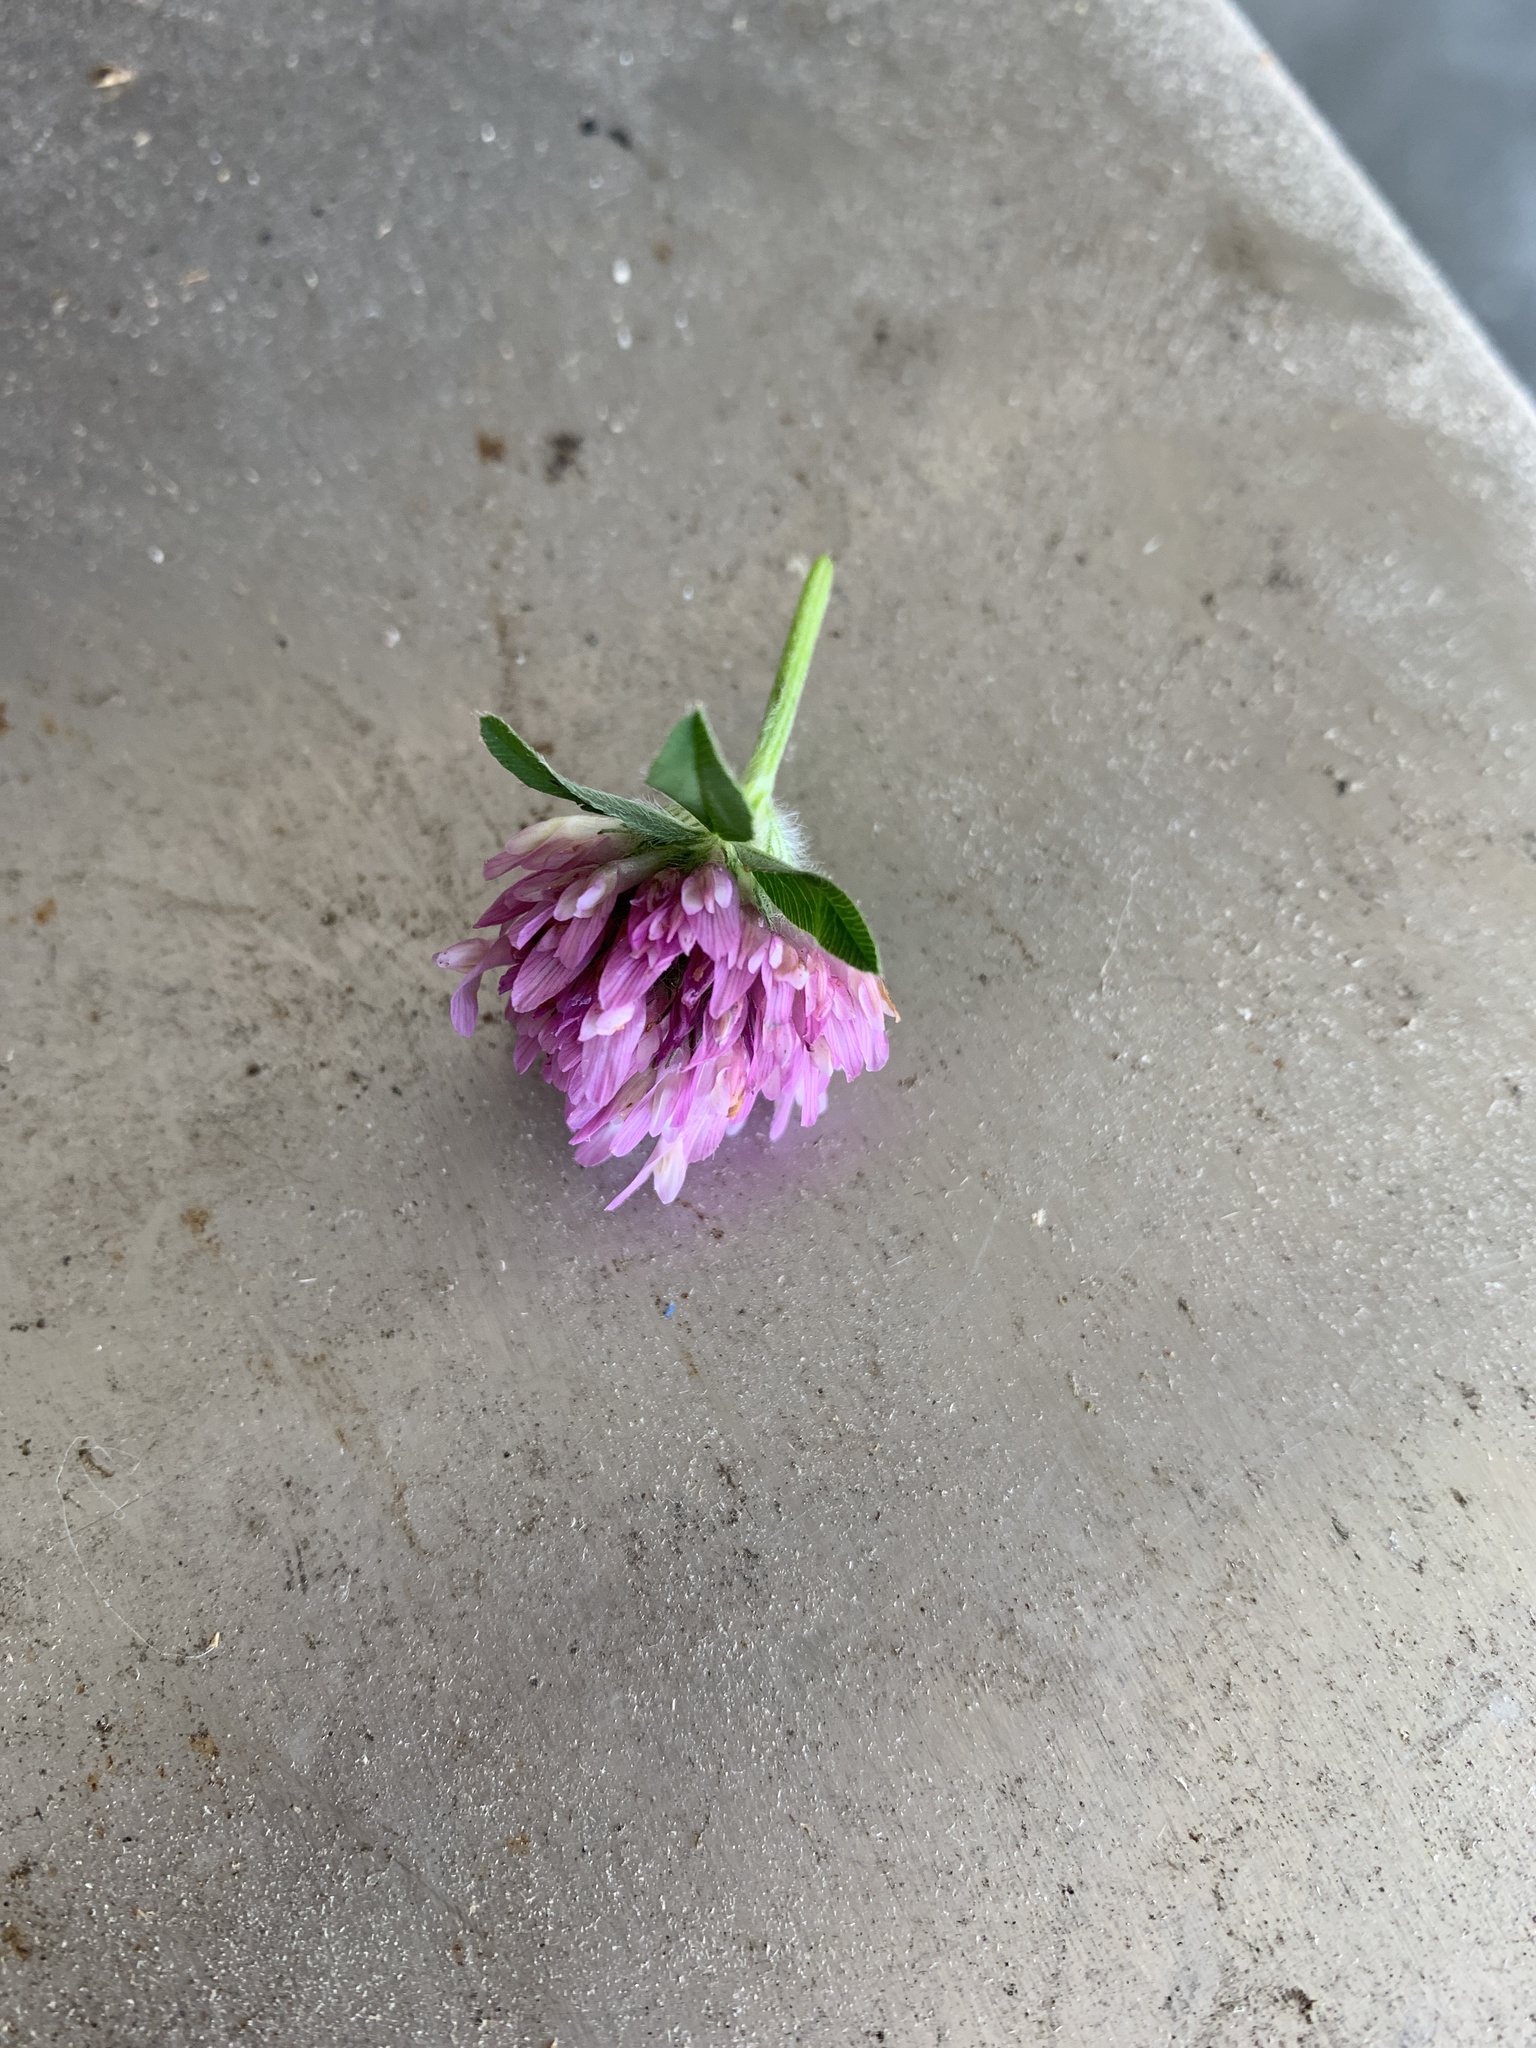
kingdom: Plantae
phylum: Tracheophyta
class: Magnoliopsida
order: Fabales
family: Fabaceae
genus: Trifolium
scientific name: Trifolium pratense
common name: Red clover
